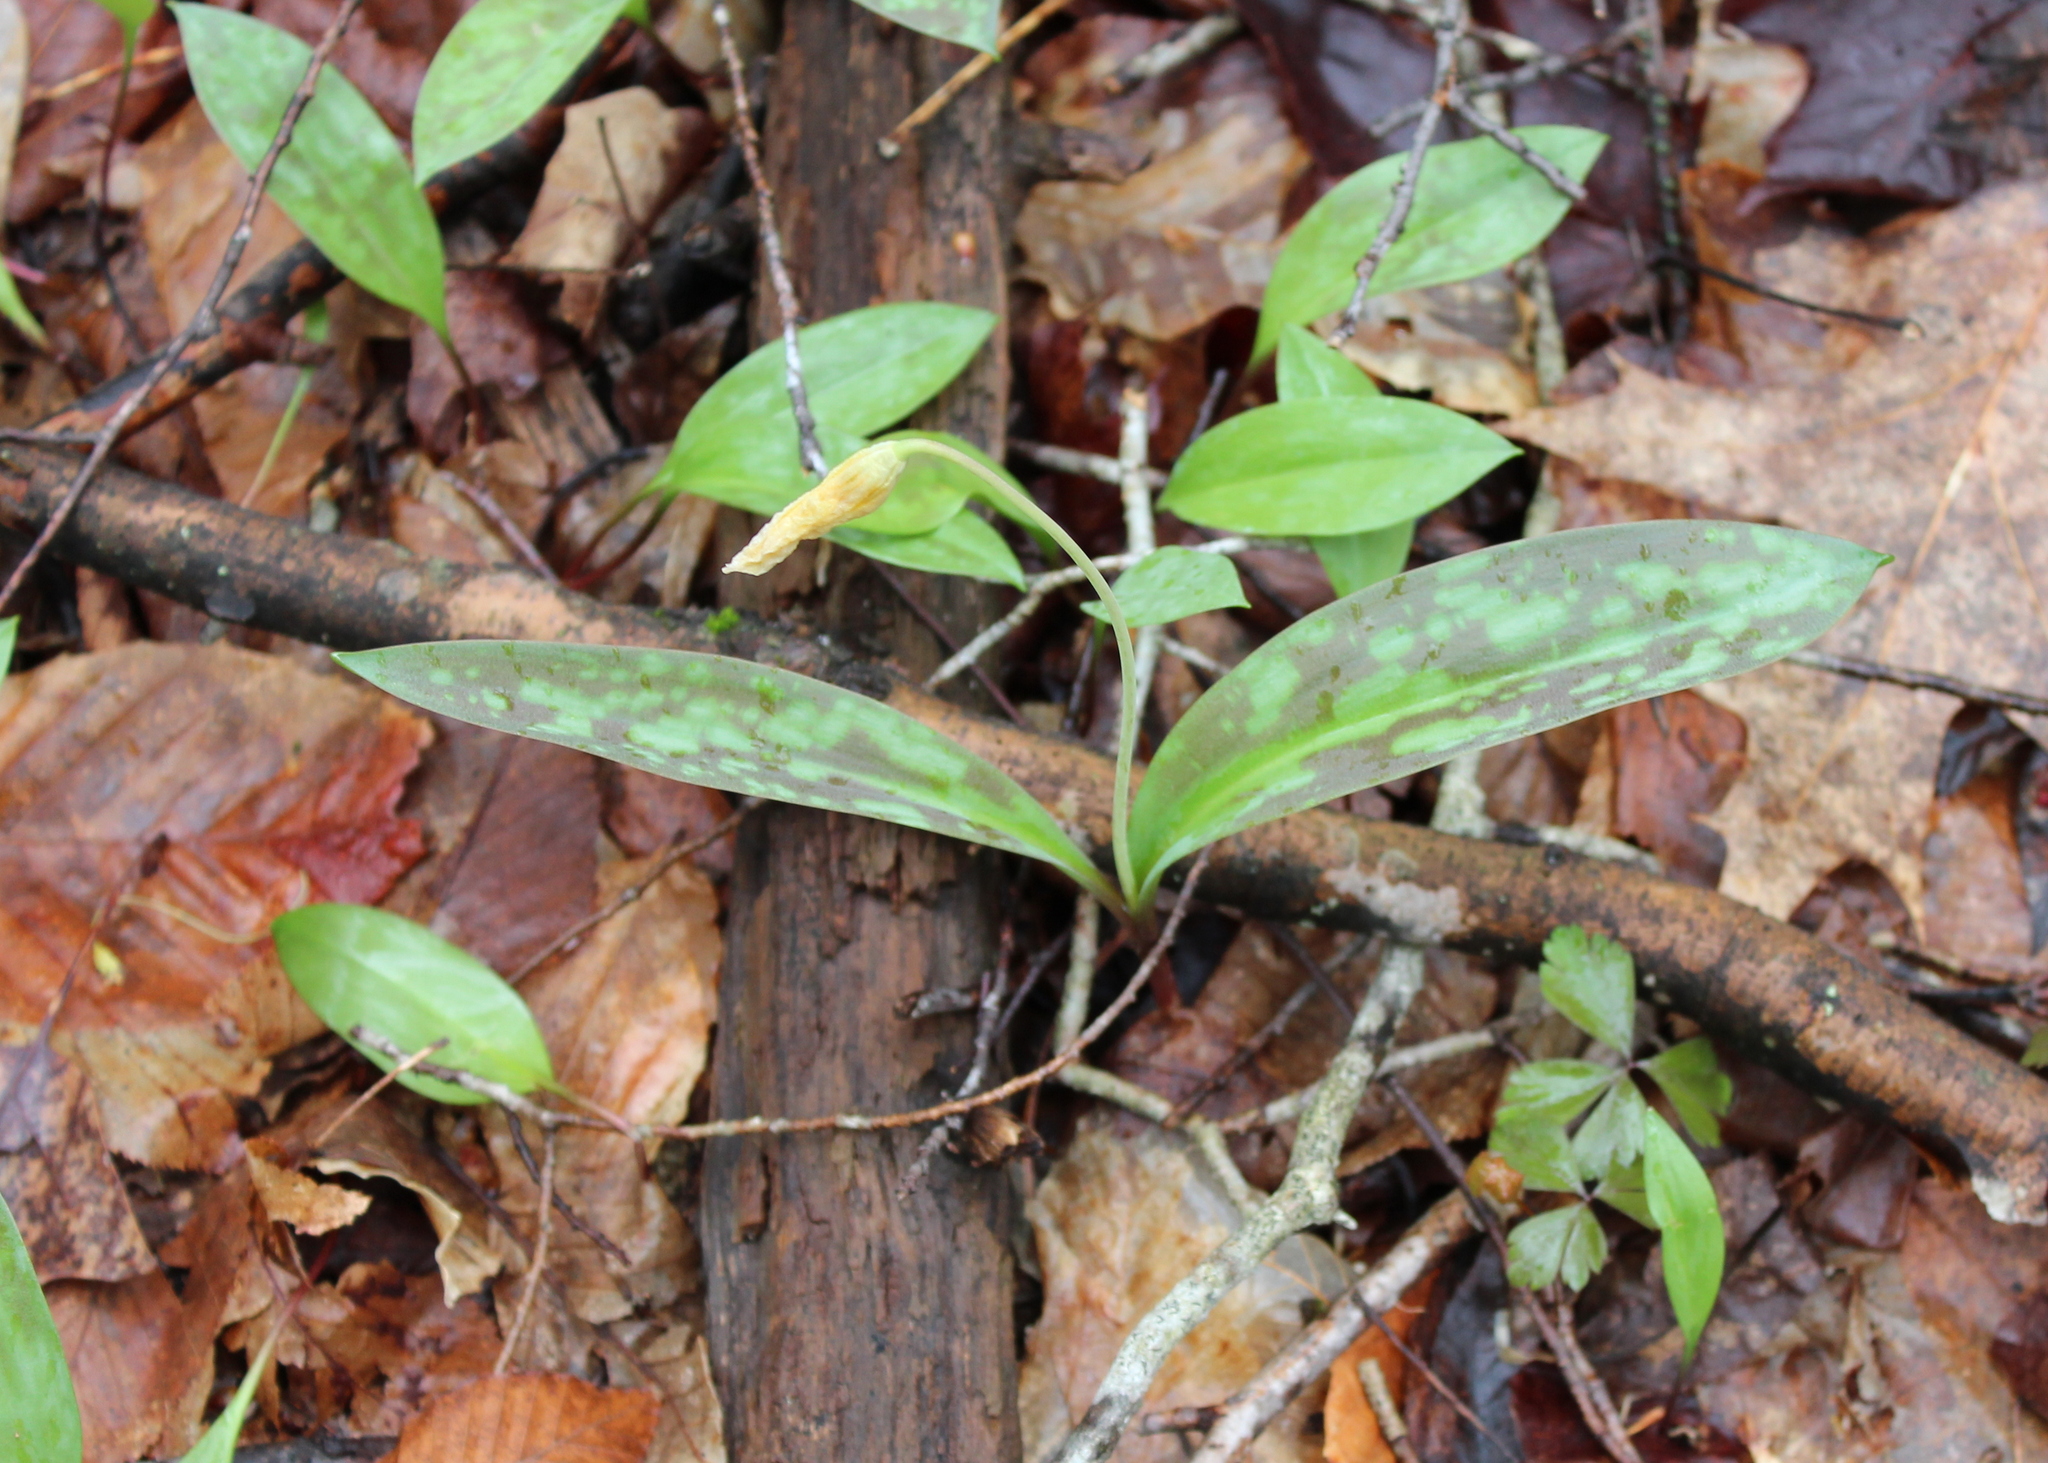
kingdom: Plantae
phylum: Tracheophyta
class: Liliopsida
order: Liliales
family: Liliaceae
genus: Erythronium
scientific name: Erythronium americanum
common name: Yellow adder's-tongue
